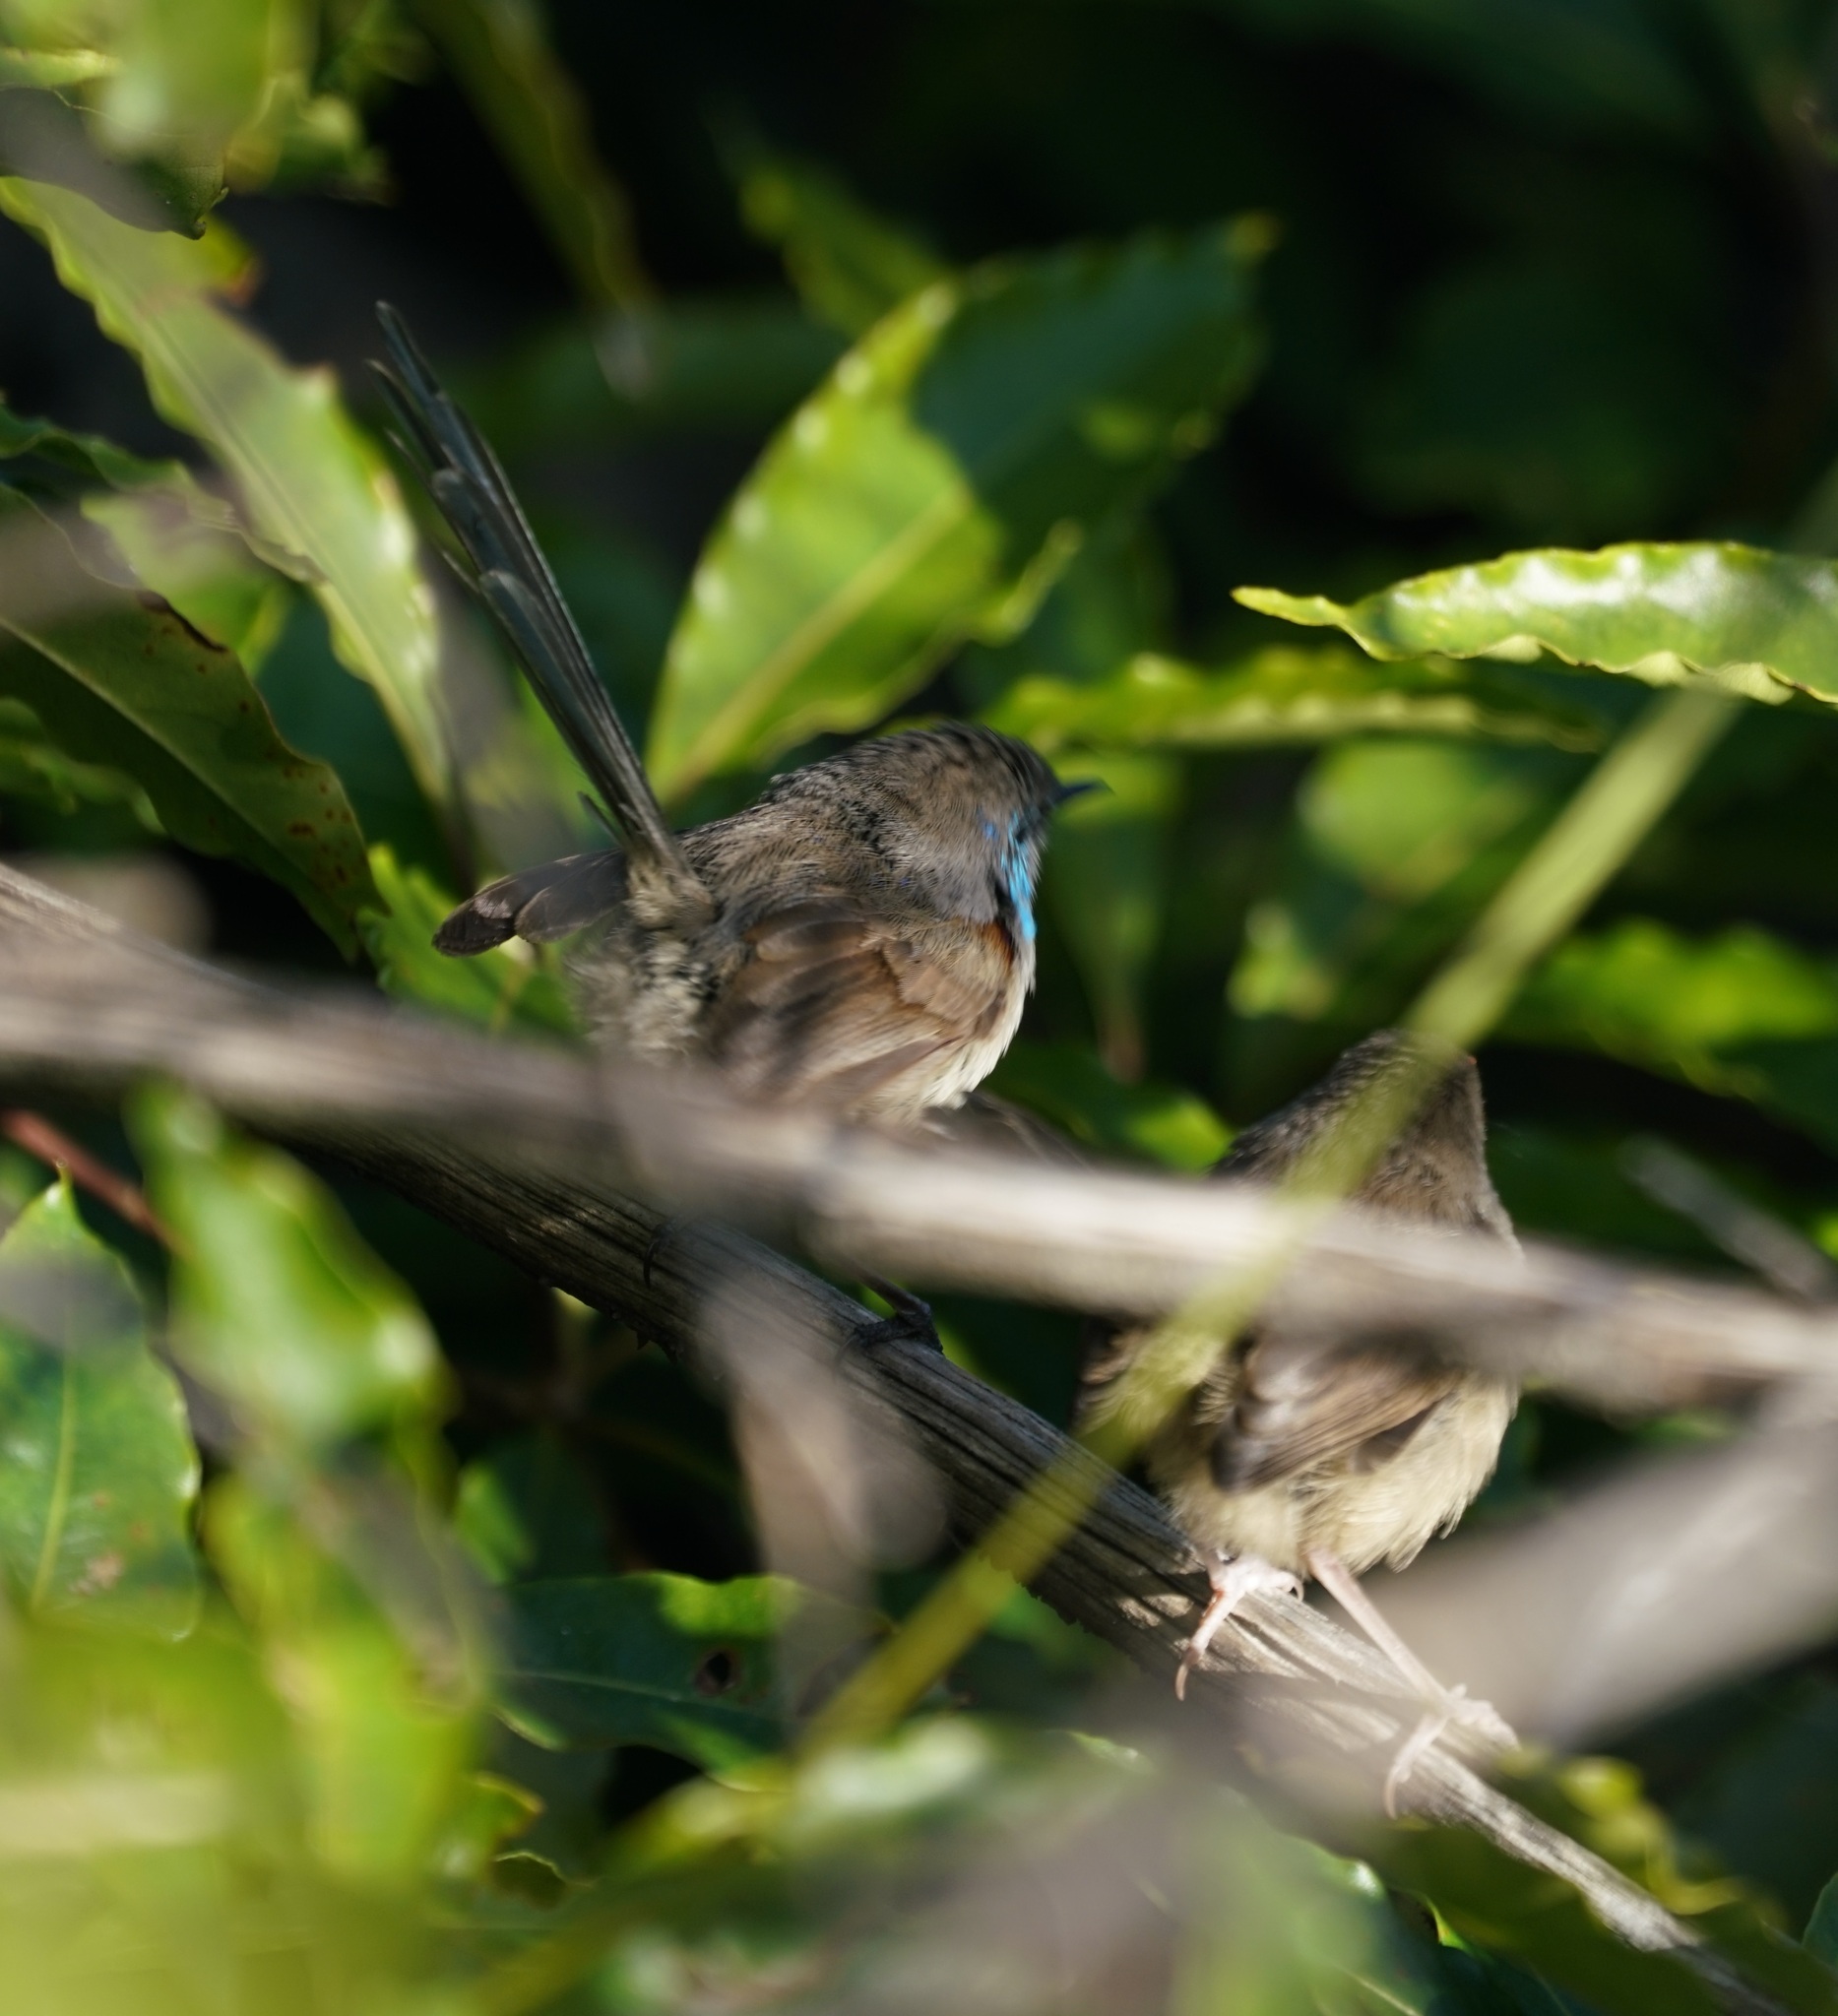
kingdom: Animalia
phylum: Chordata
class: Aves
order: Passeriformes
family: Maluridae
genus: Malurus
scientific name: Malurus lamberti
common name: Variegated fairywren
